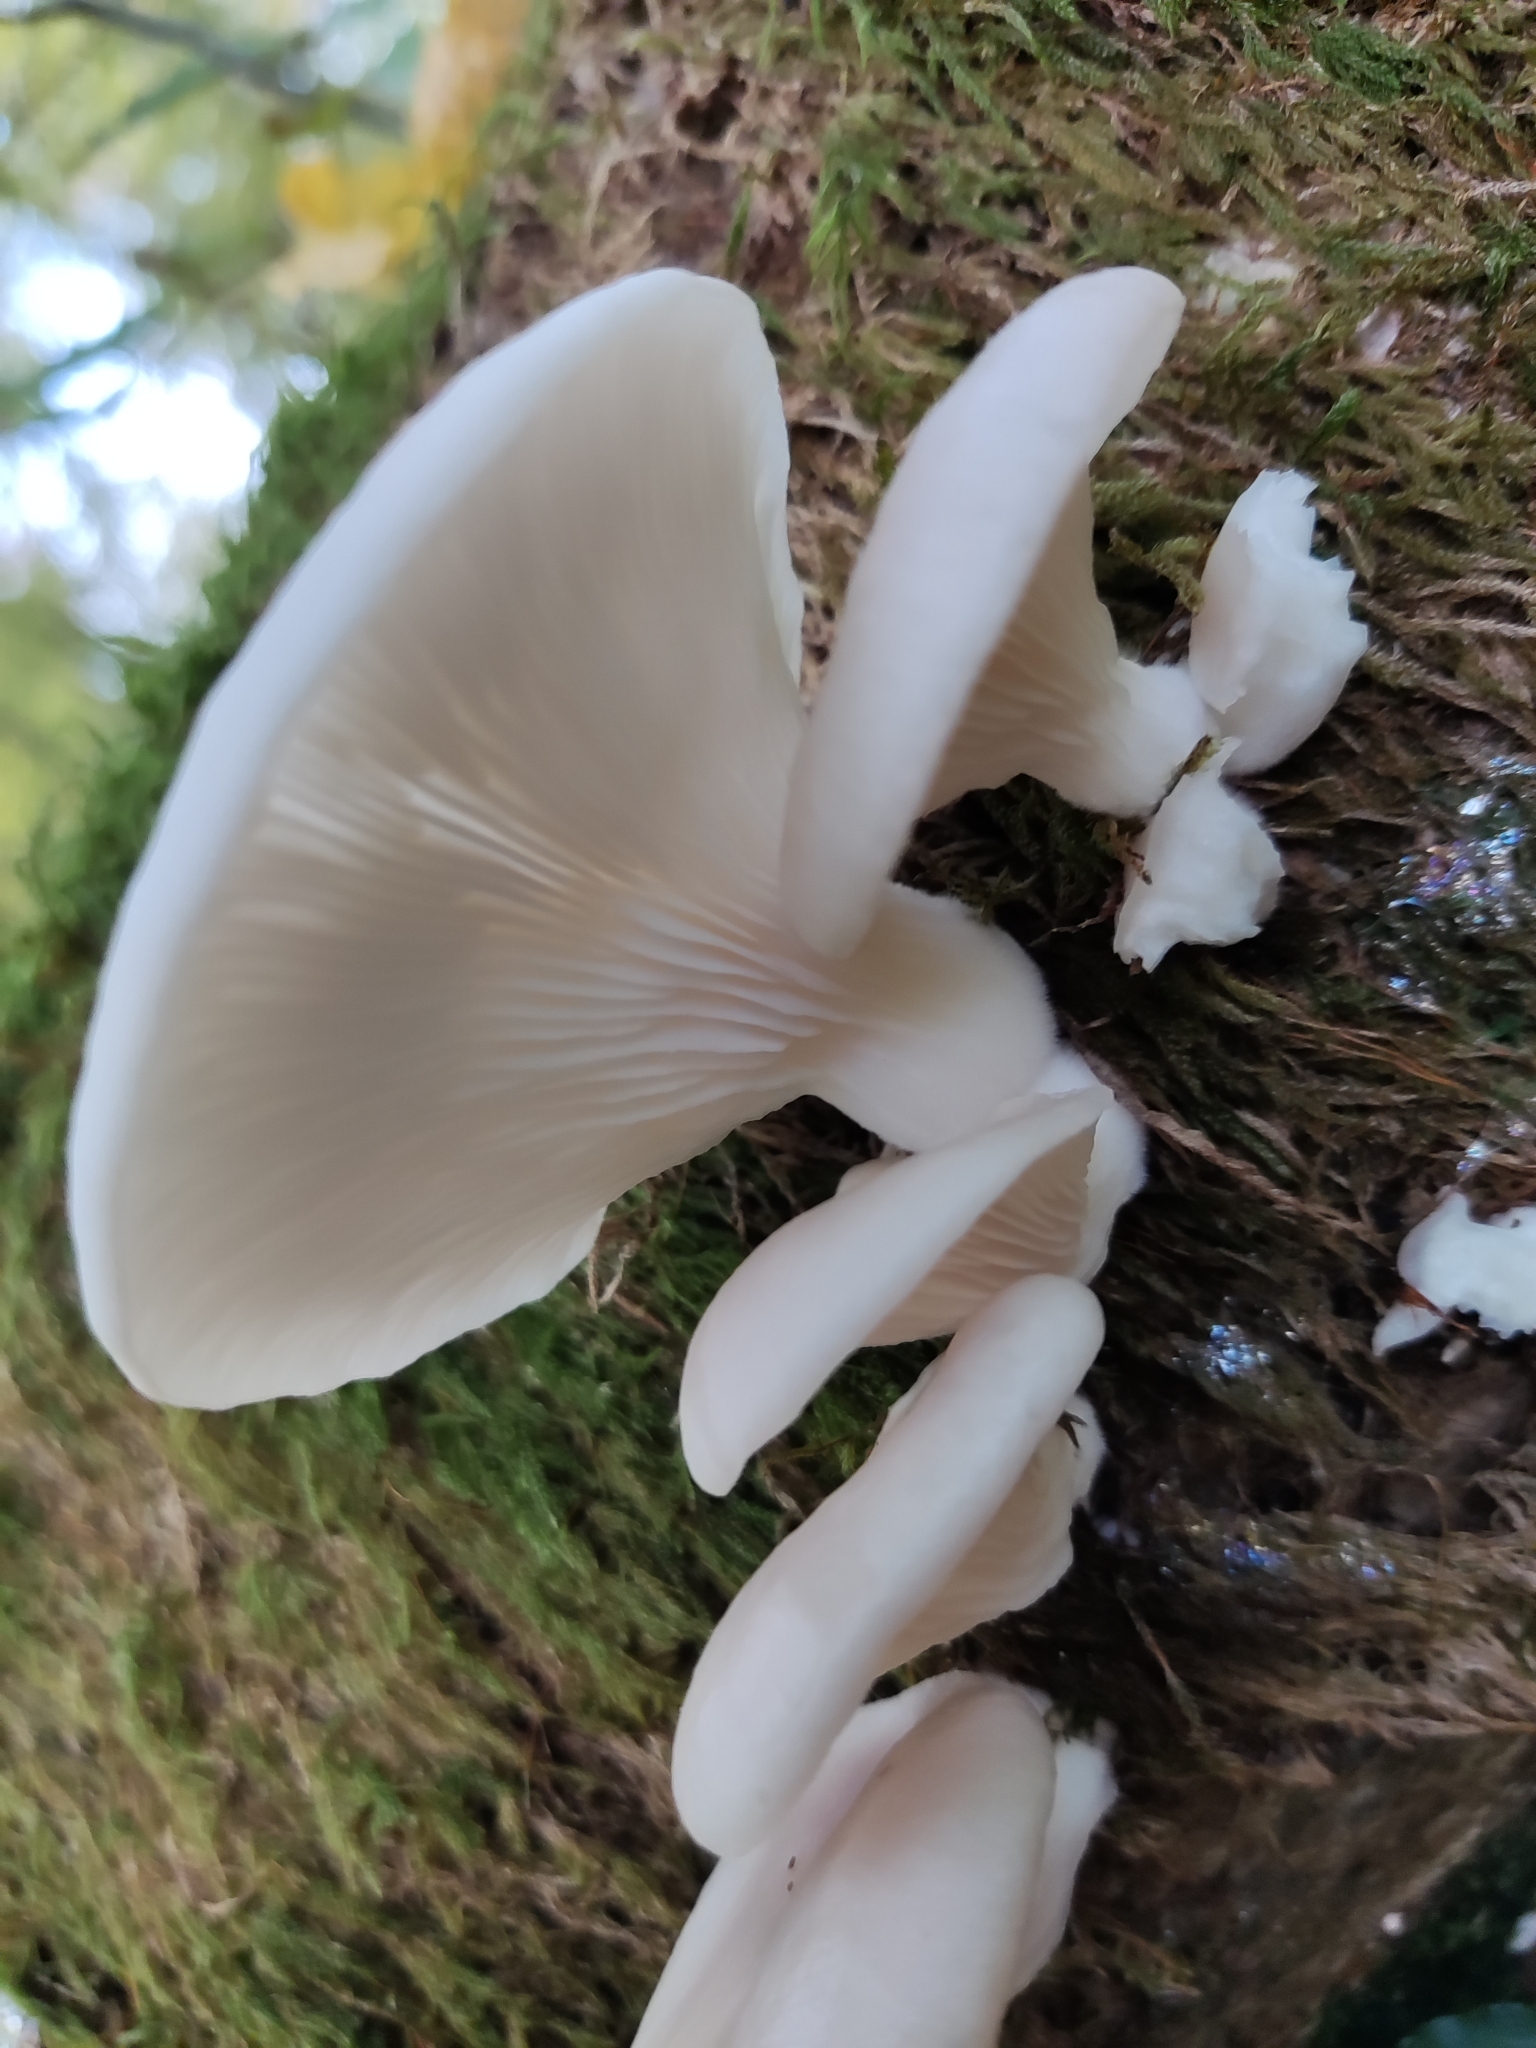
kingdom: Fungi
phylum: Basidiomycota
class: Agaricomycetes
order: Agaricales
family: Pleurotaceae
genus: Pleurotus
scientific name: Pleurotus pulmonarius
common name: Pale oyster
